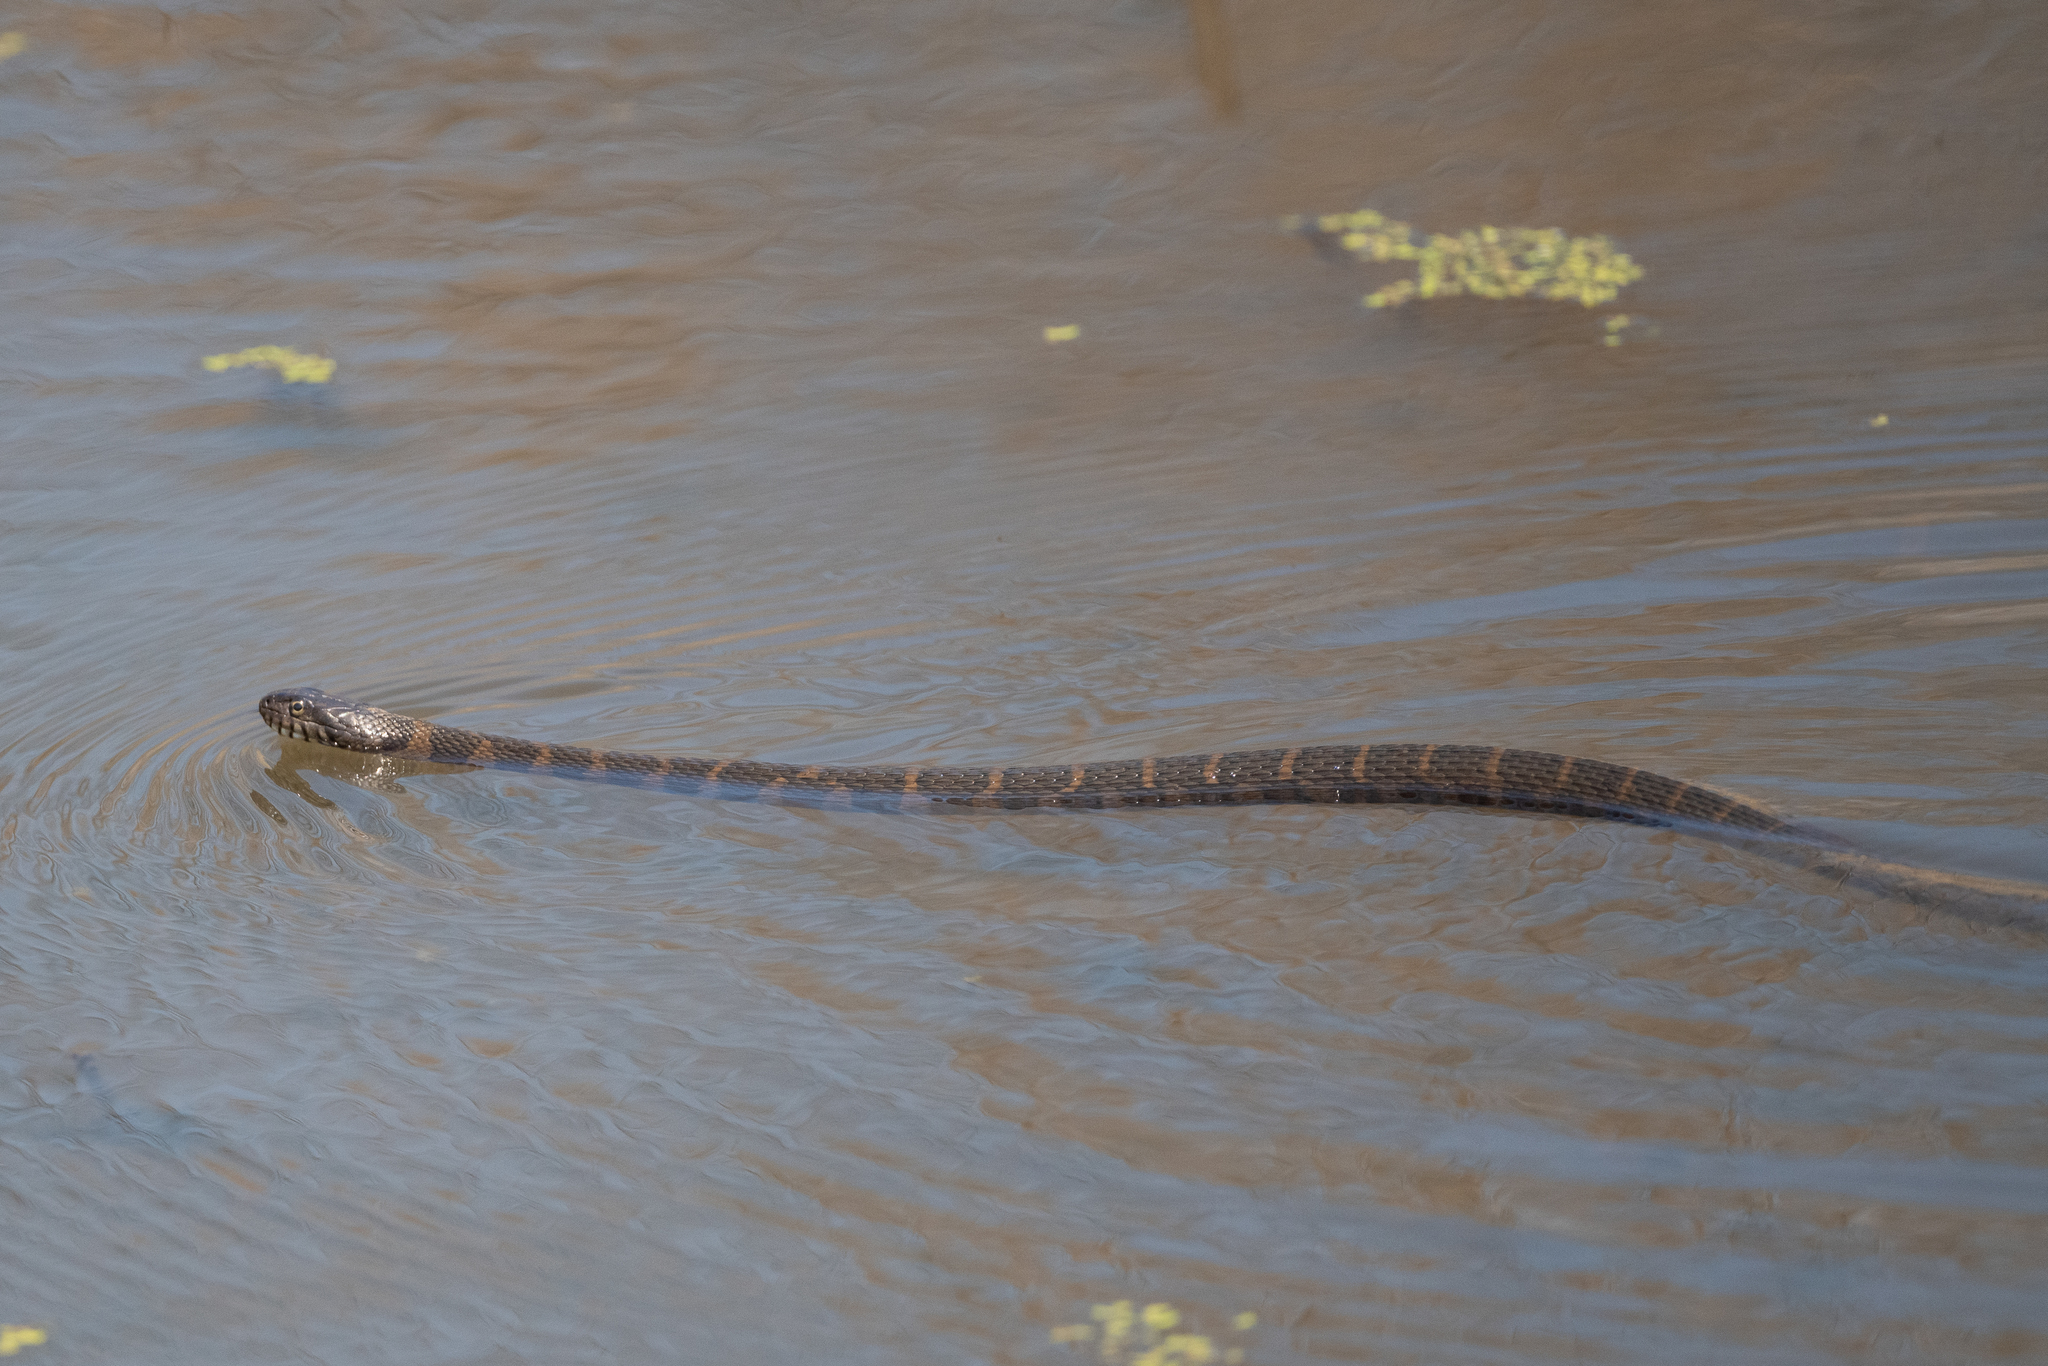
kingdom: Animalia
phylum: Chordata
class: Squamata
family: Colubridae
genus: Nerodia
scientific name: Nerodia sipedon
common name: Northern water snake
